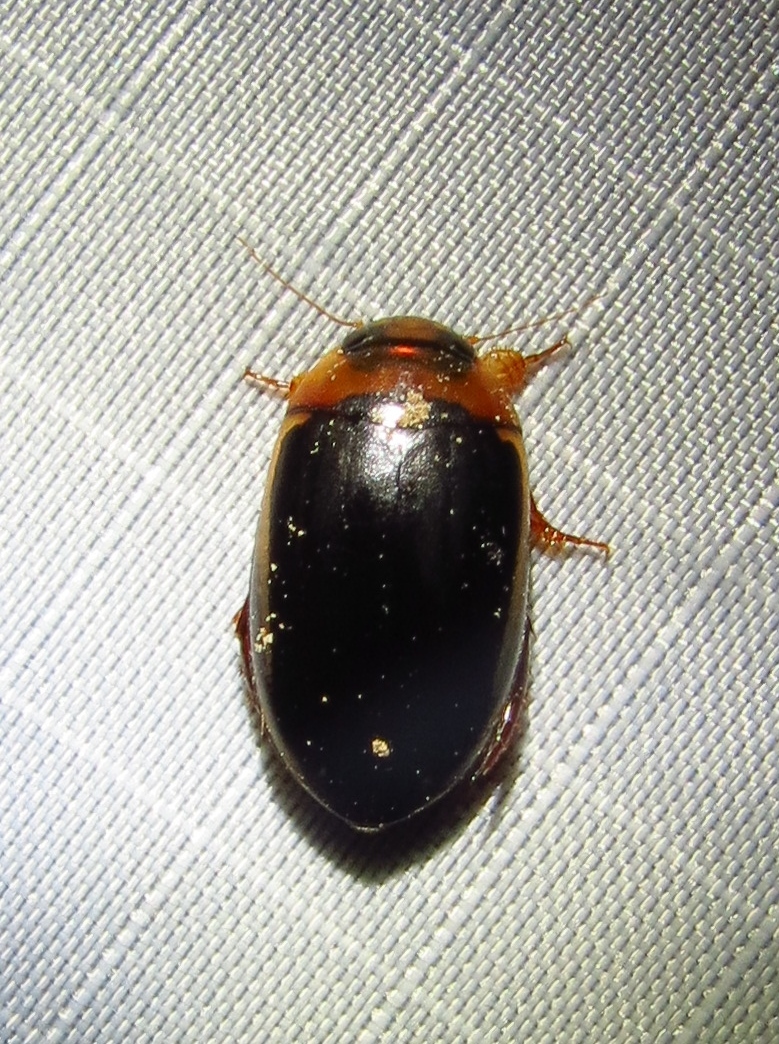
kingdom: Animalia
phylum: Arthropoda
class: Insecta
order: Coleoptera
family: Dytiscidae
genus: Hydaticus
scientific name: Hydaticus bimarginatus
